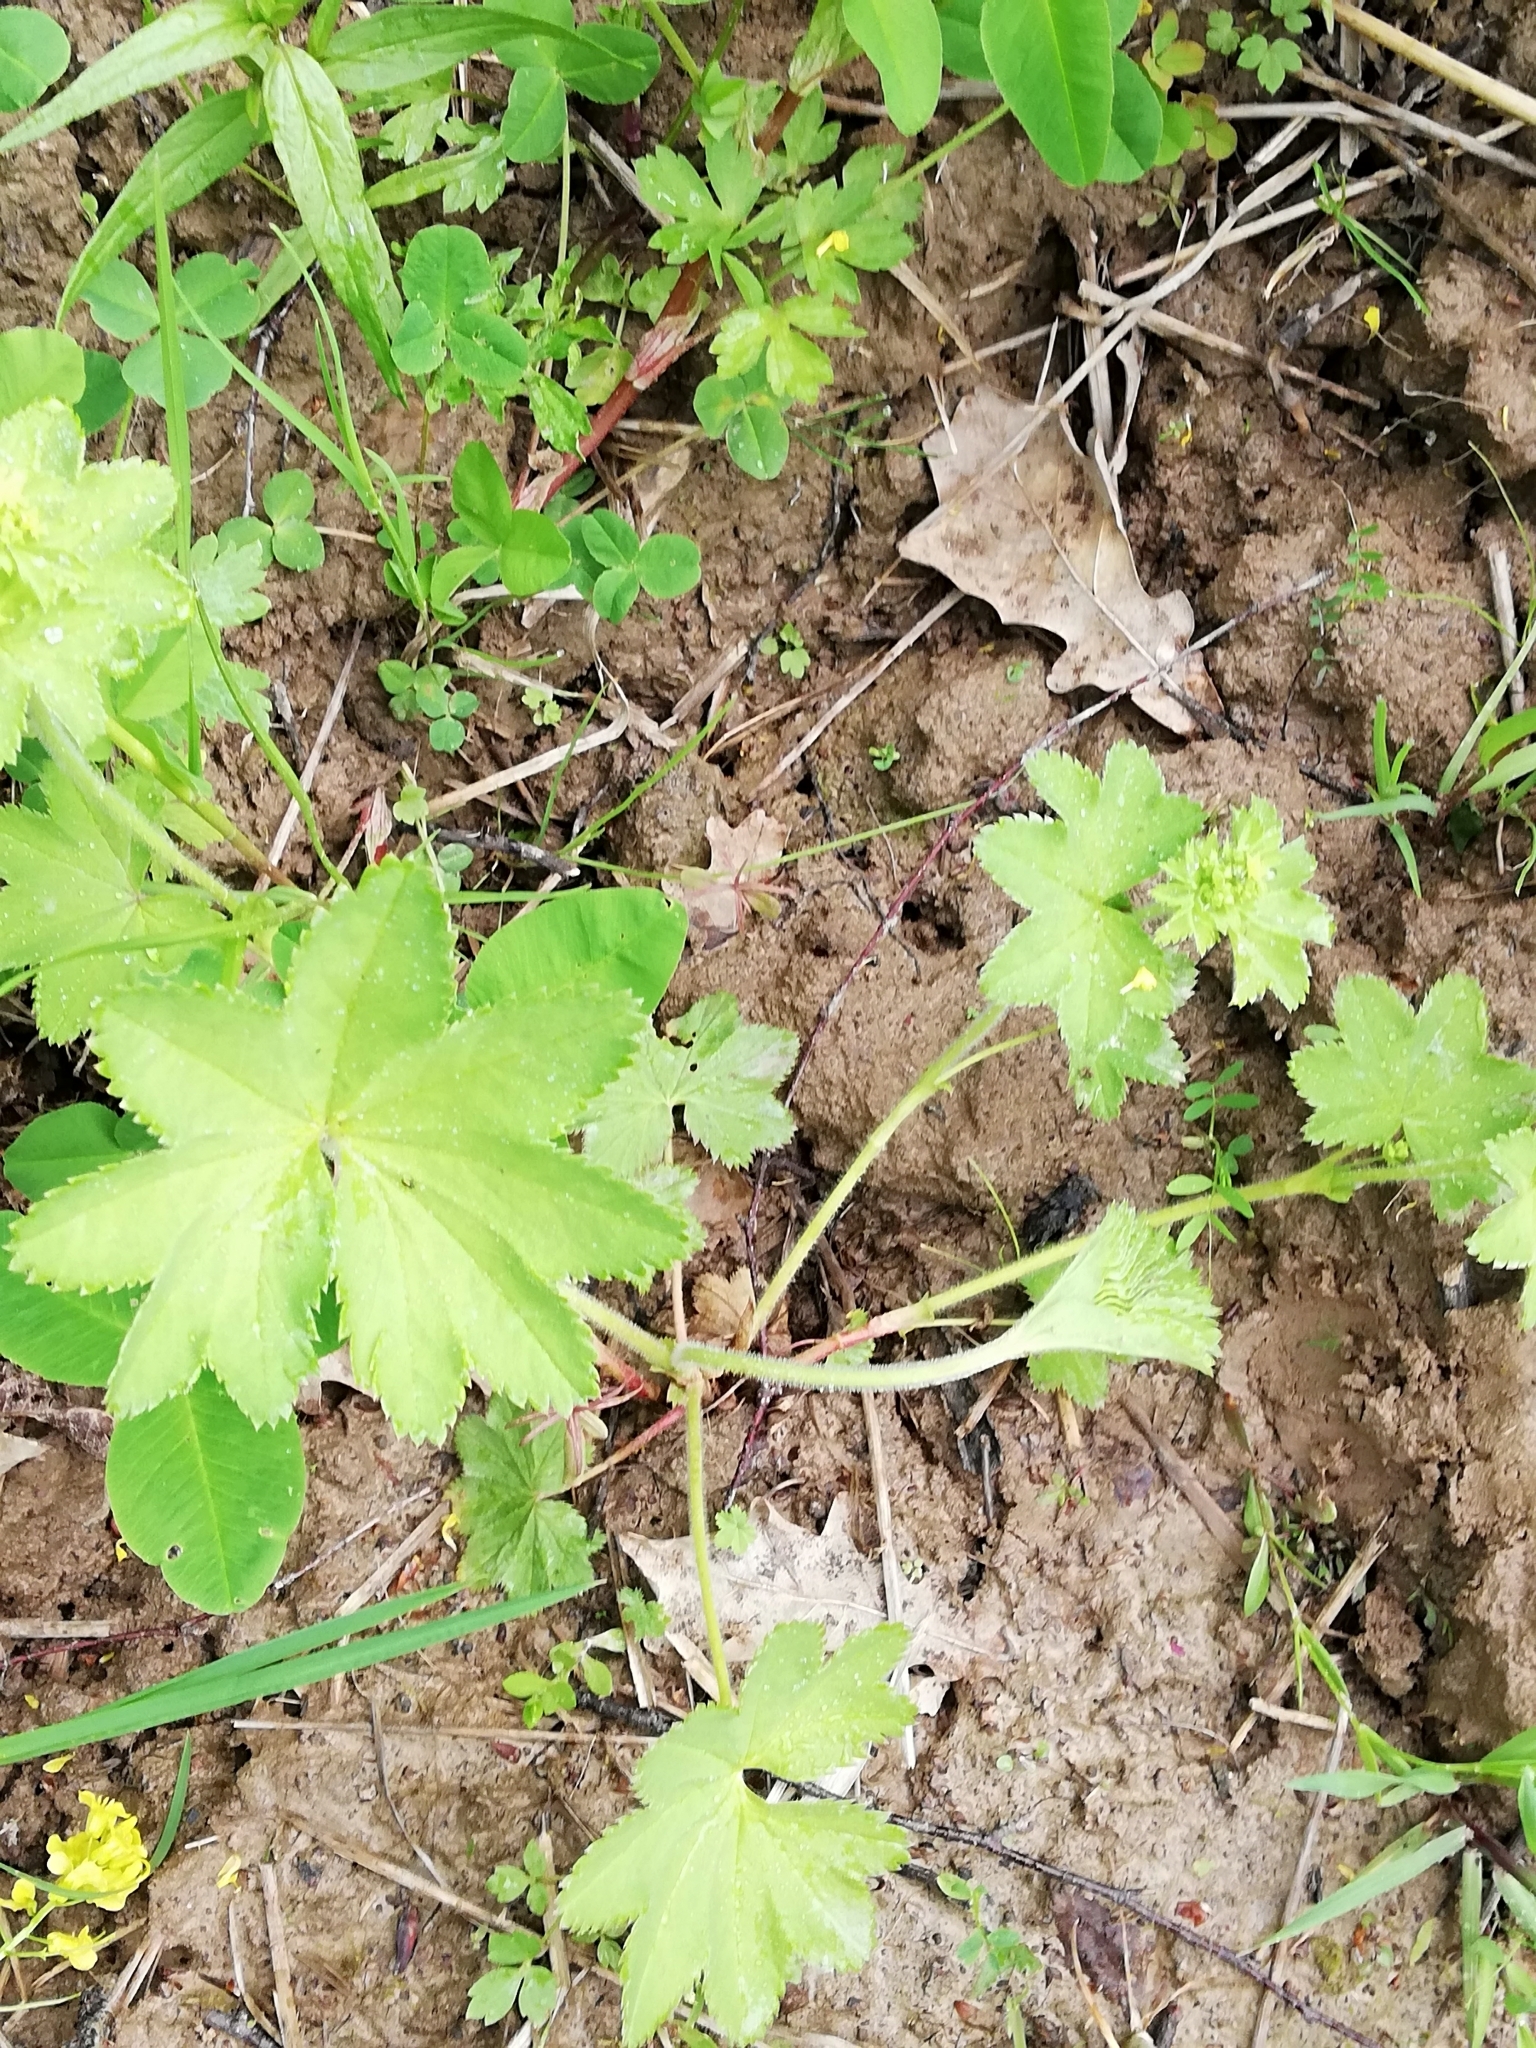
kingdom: Plantae
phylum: Tracheophyta
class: Magnoliopsida
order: Rosales
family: Rosaceae
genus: Alchemilla
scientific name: Alchemilla tichomirovii
